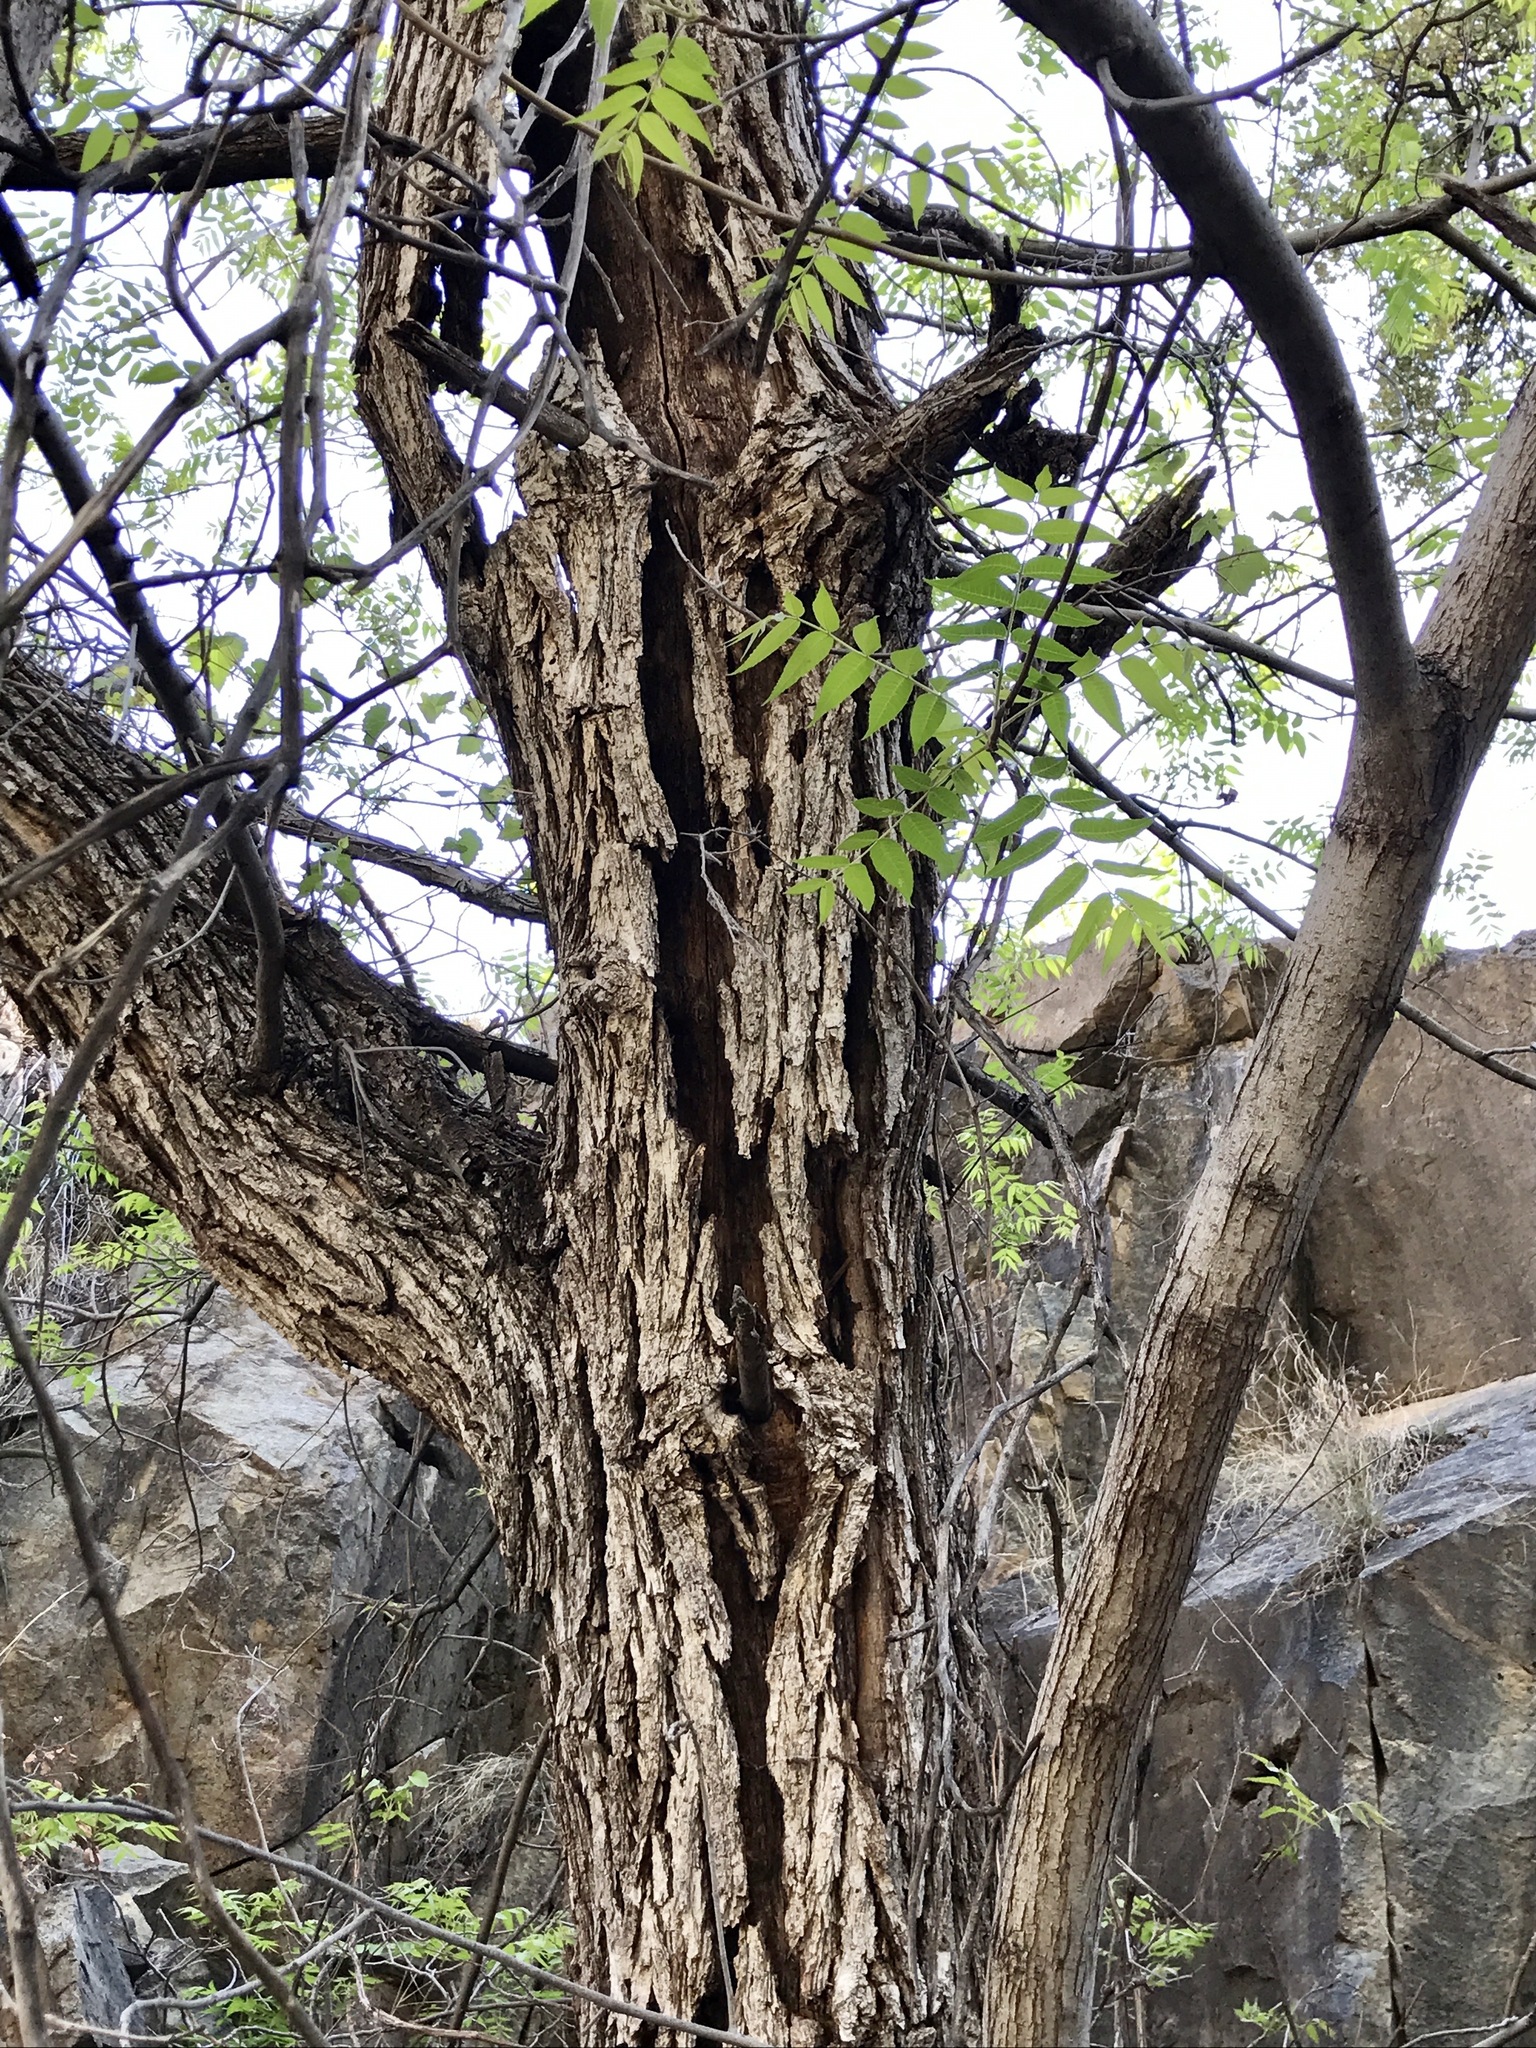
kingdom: Plantae
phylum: Tracheophyta
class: Magnoliopsida
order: Fagales
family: Juglandaceae
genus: Juglans
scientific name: Juglans major
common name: Arizona walnut
